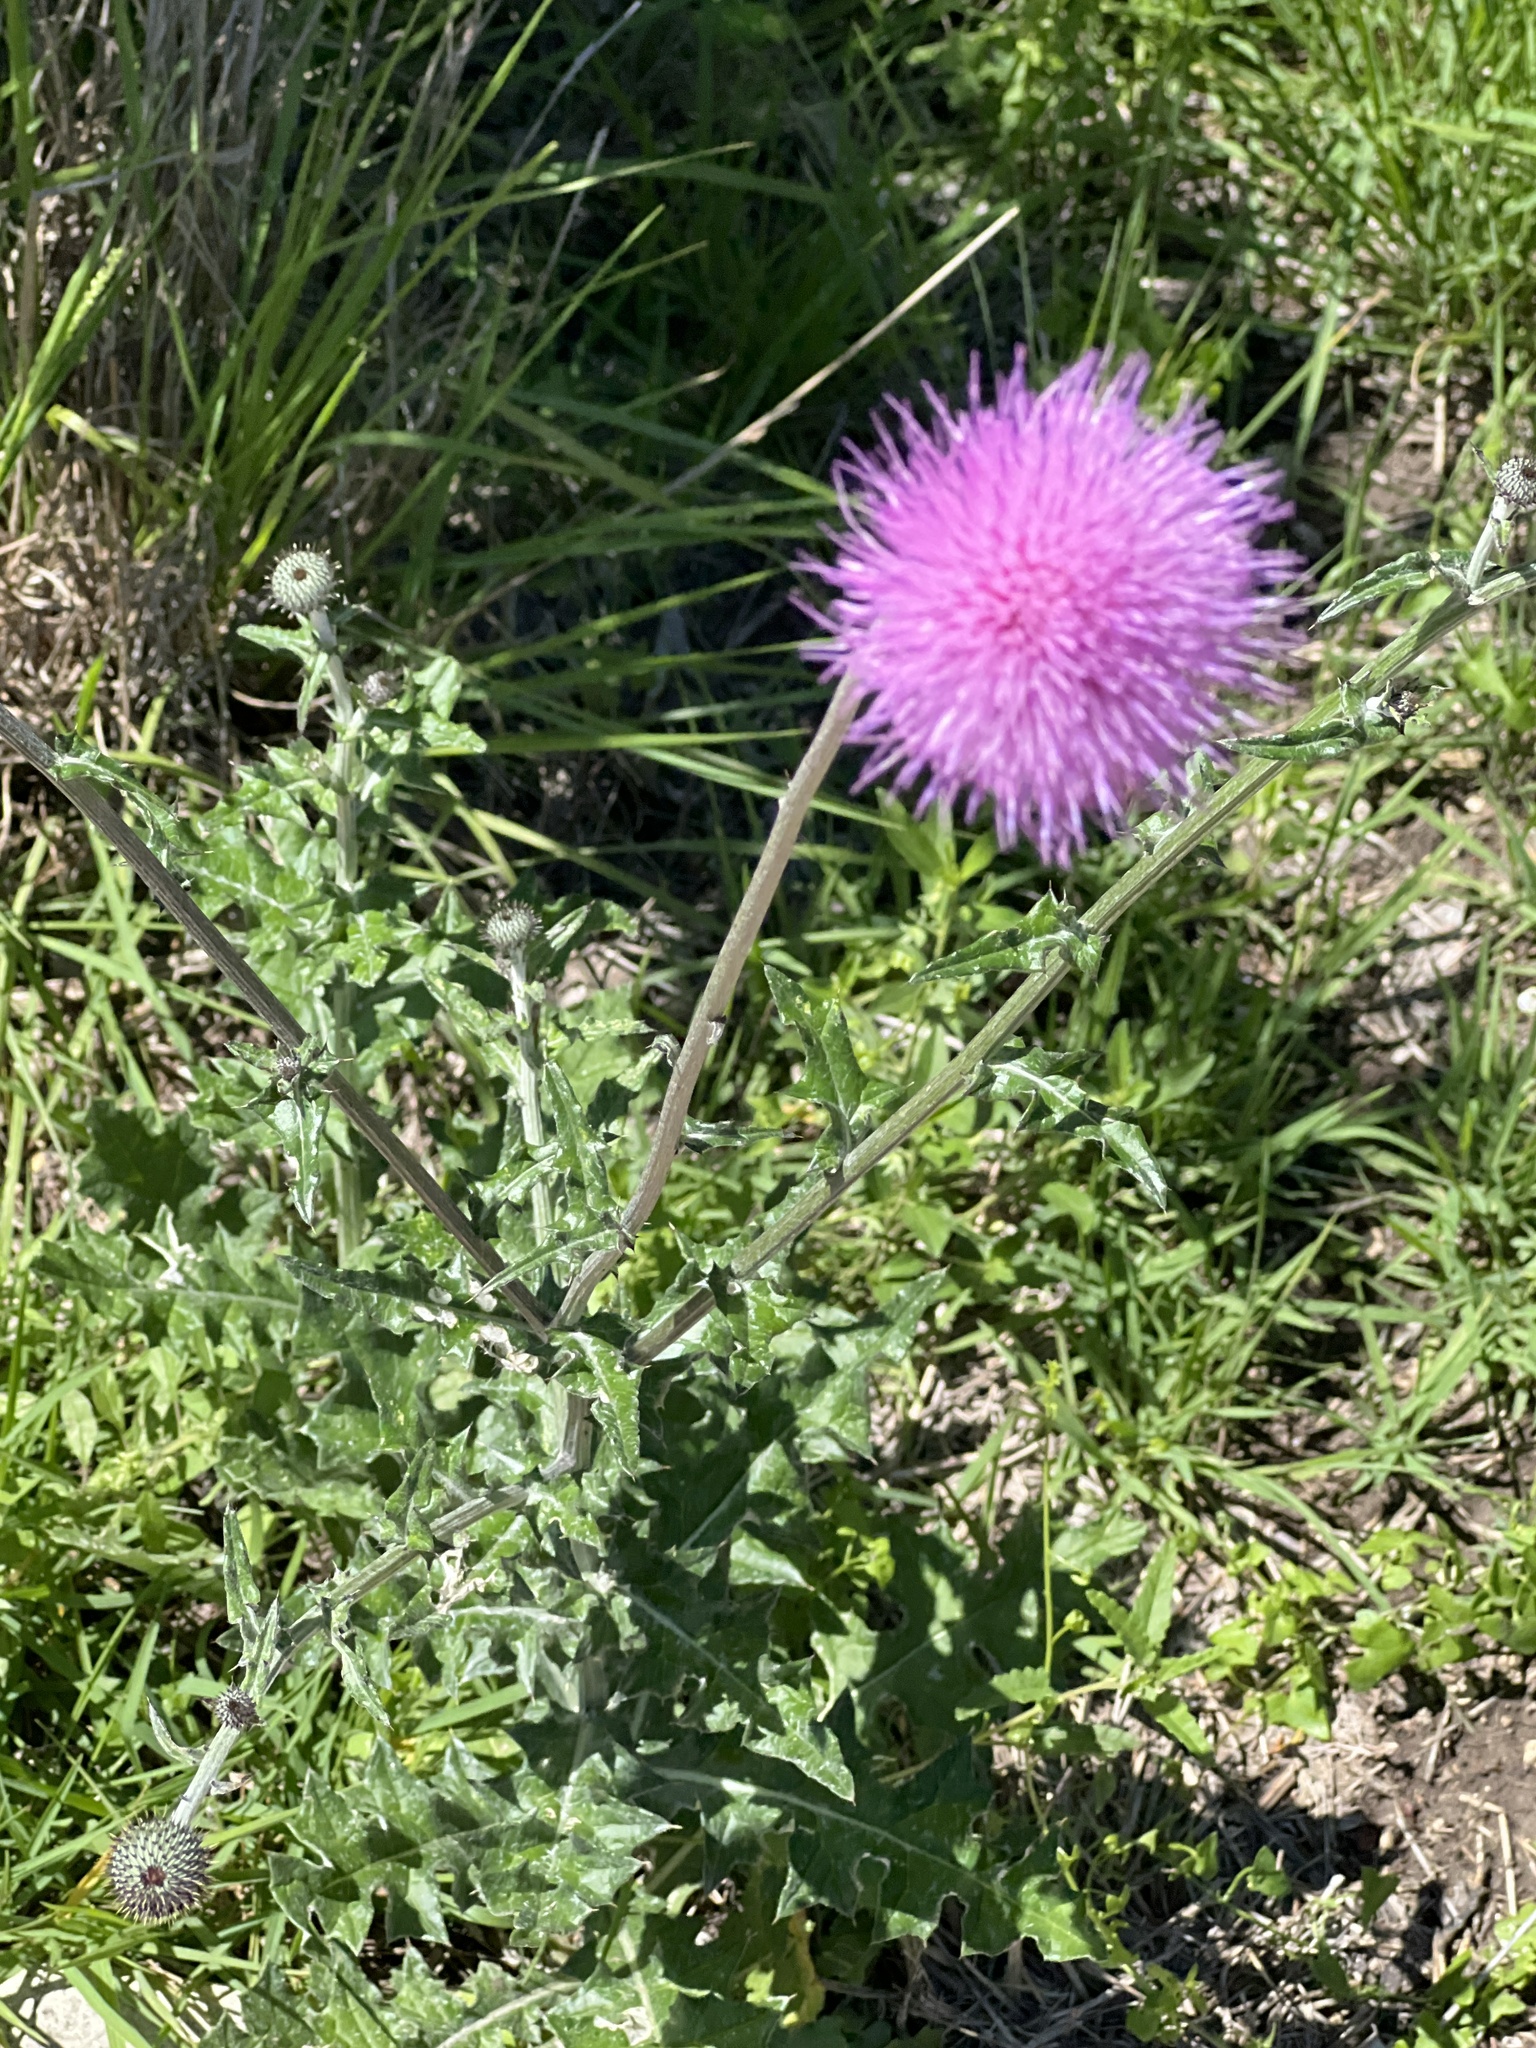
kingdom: Plantae
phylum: Tracheophyta
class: Magnoliopsida
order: Asterales
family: Asteraceae
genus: Cirsium
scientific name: Cirsium texanum
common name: Texas purple thistle
